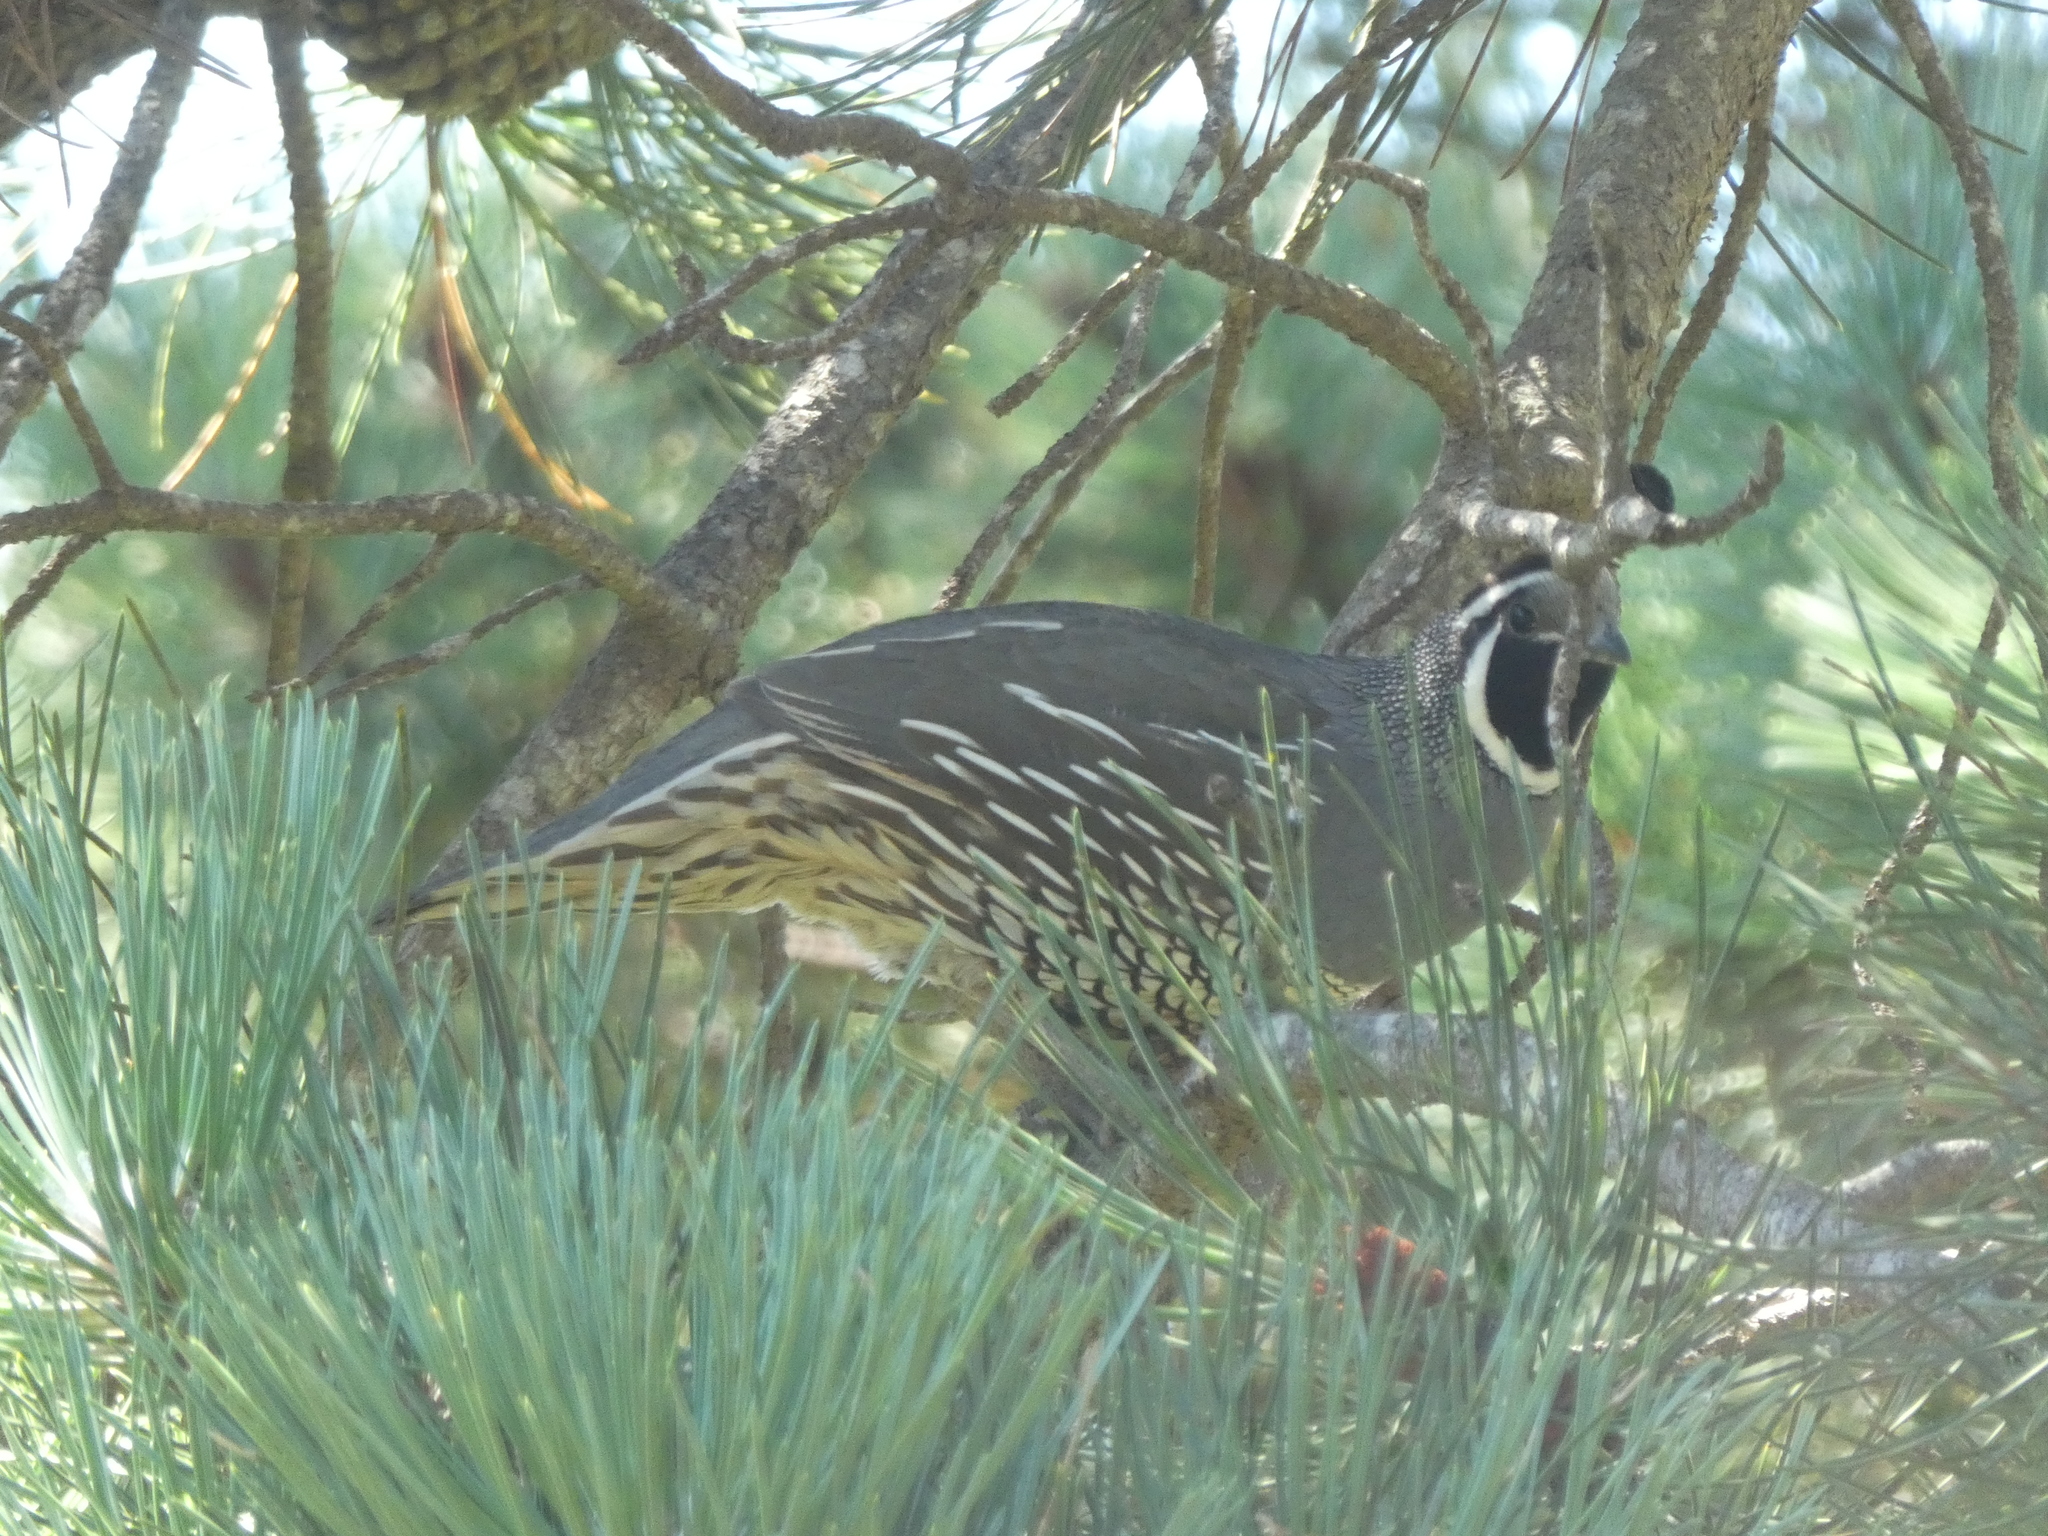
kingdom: Animalia
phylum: Chordata
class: Aves
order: Galliformes
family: Odontophoridae
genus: Callipepla
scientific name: Callipepla californica
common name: California quail
